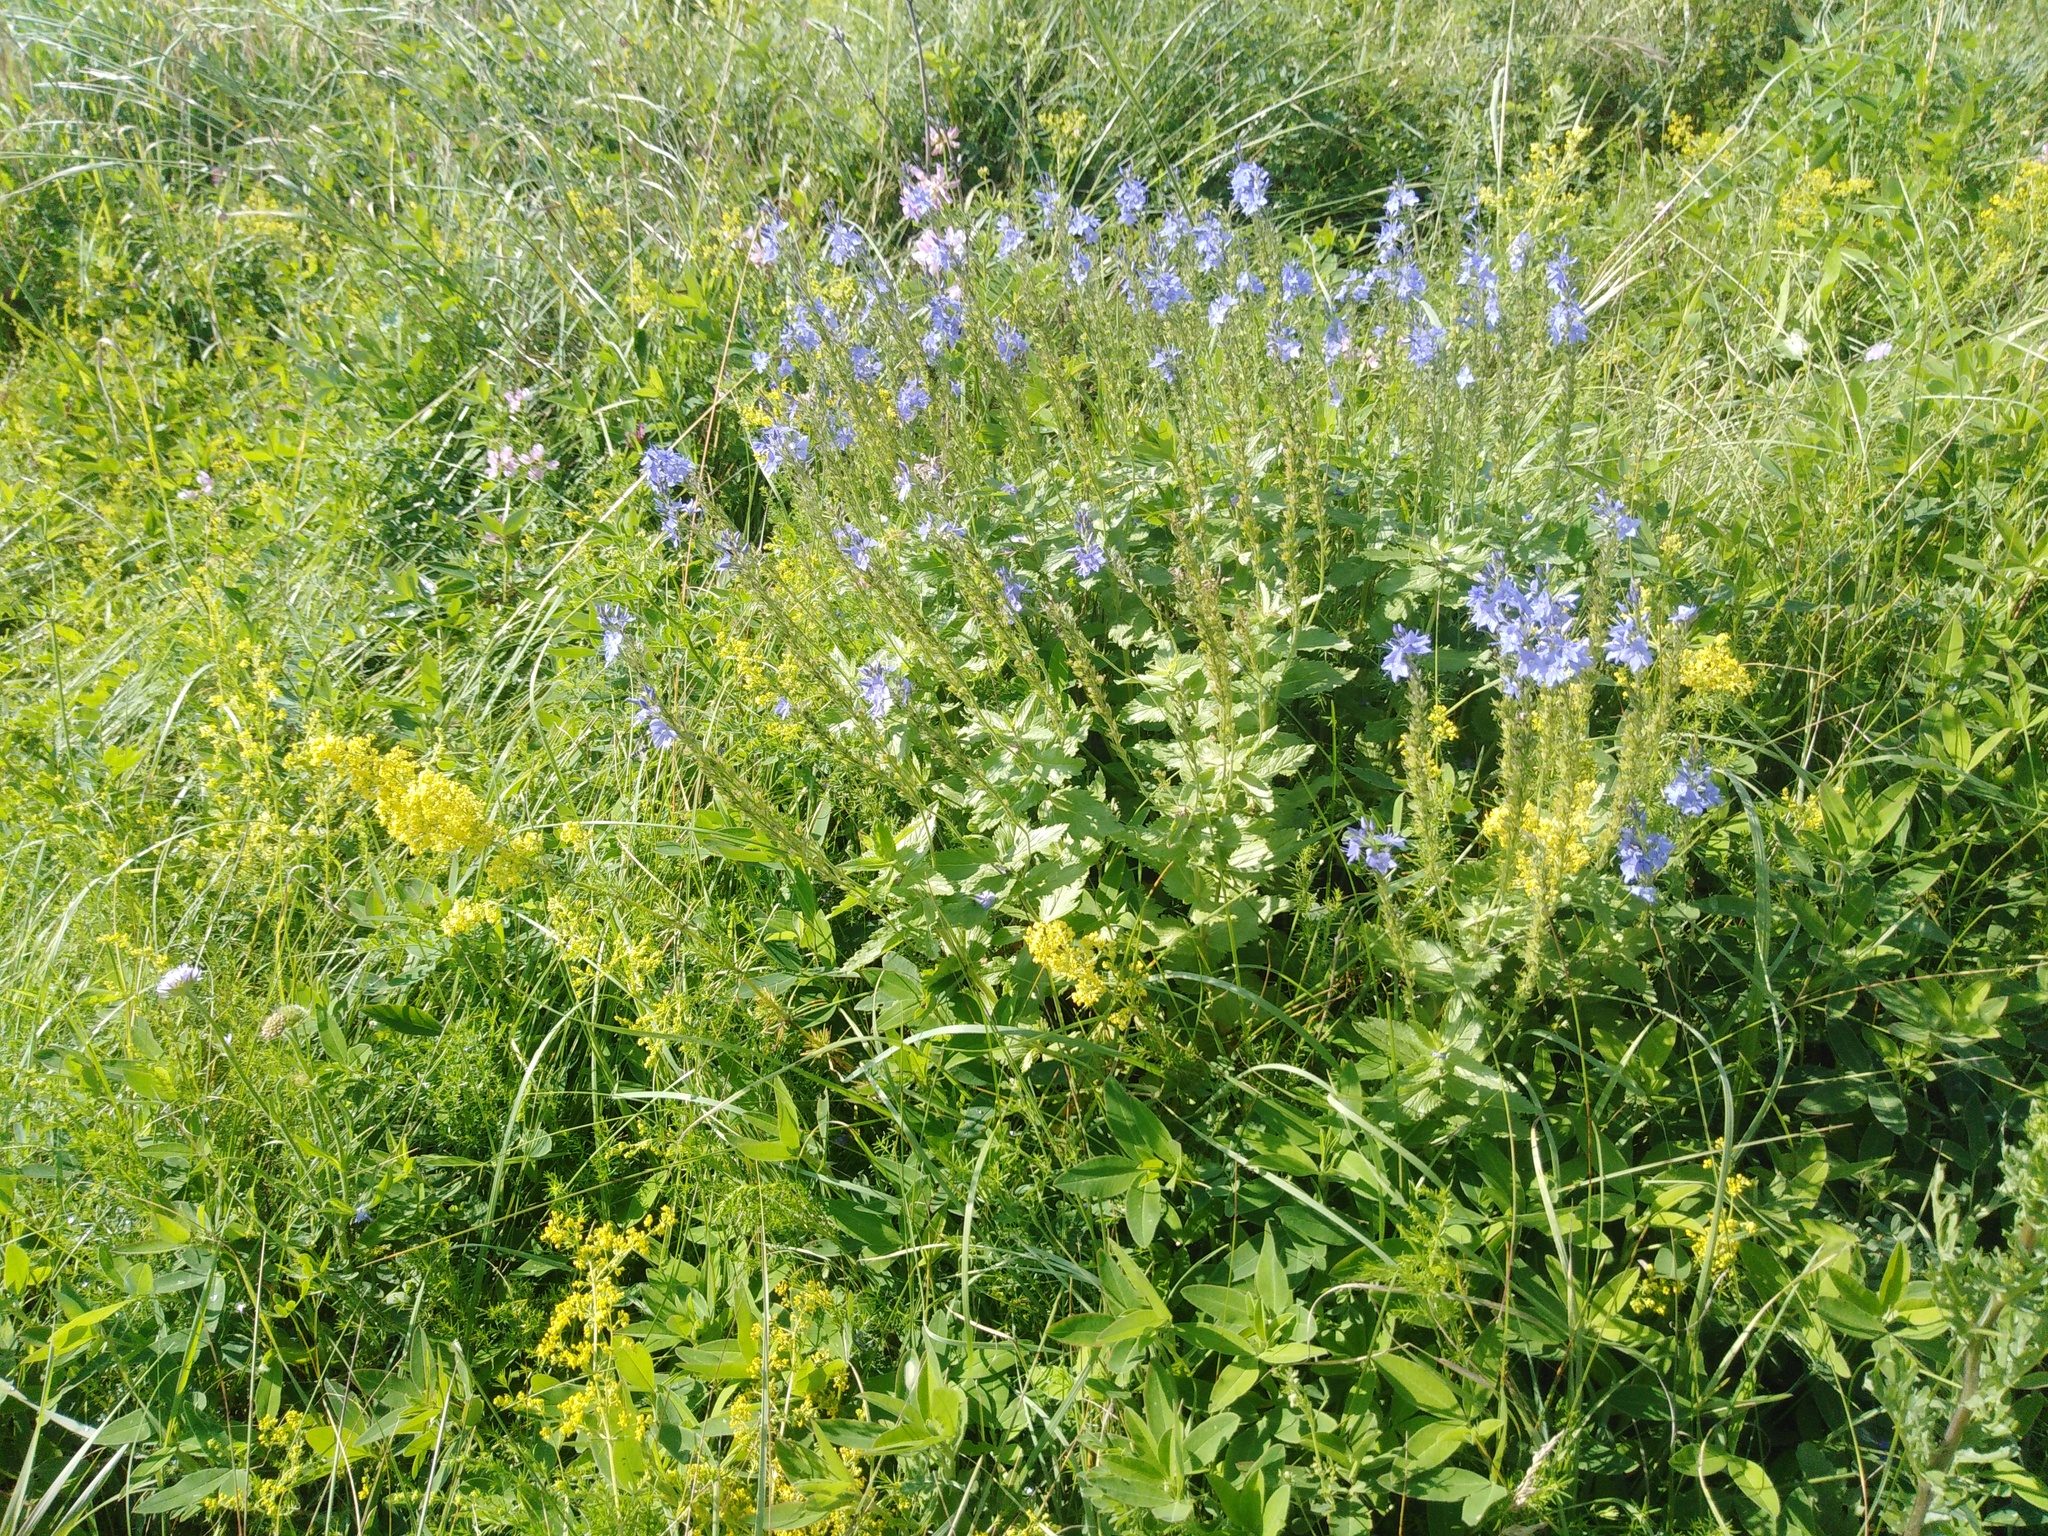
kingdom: Plantae
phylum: Tracheophyta
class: Magnoliopsida
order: Lamiales
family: Plantaginaceae
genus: Veronica
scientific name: Veronica teucrium
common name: Large speedwell
